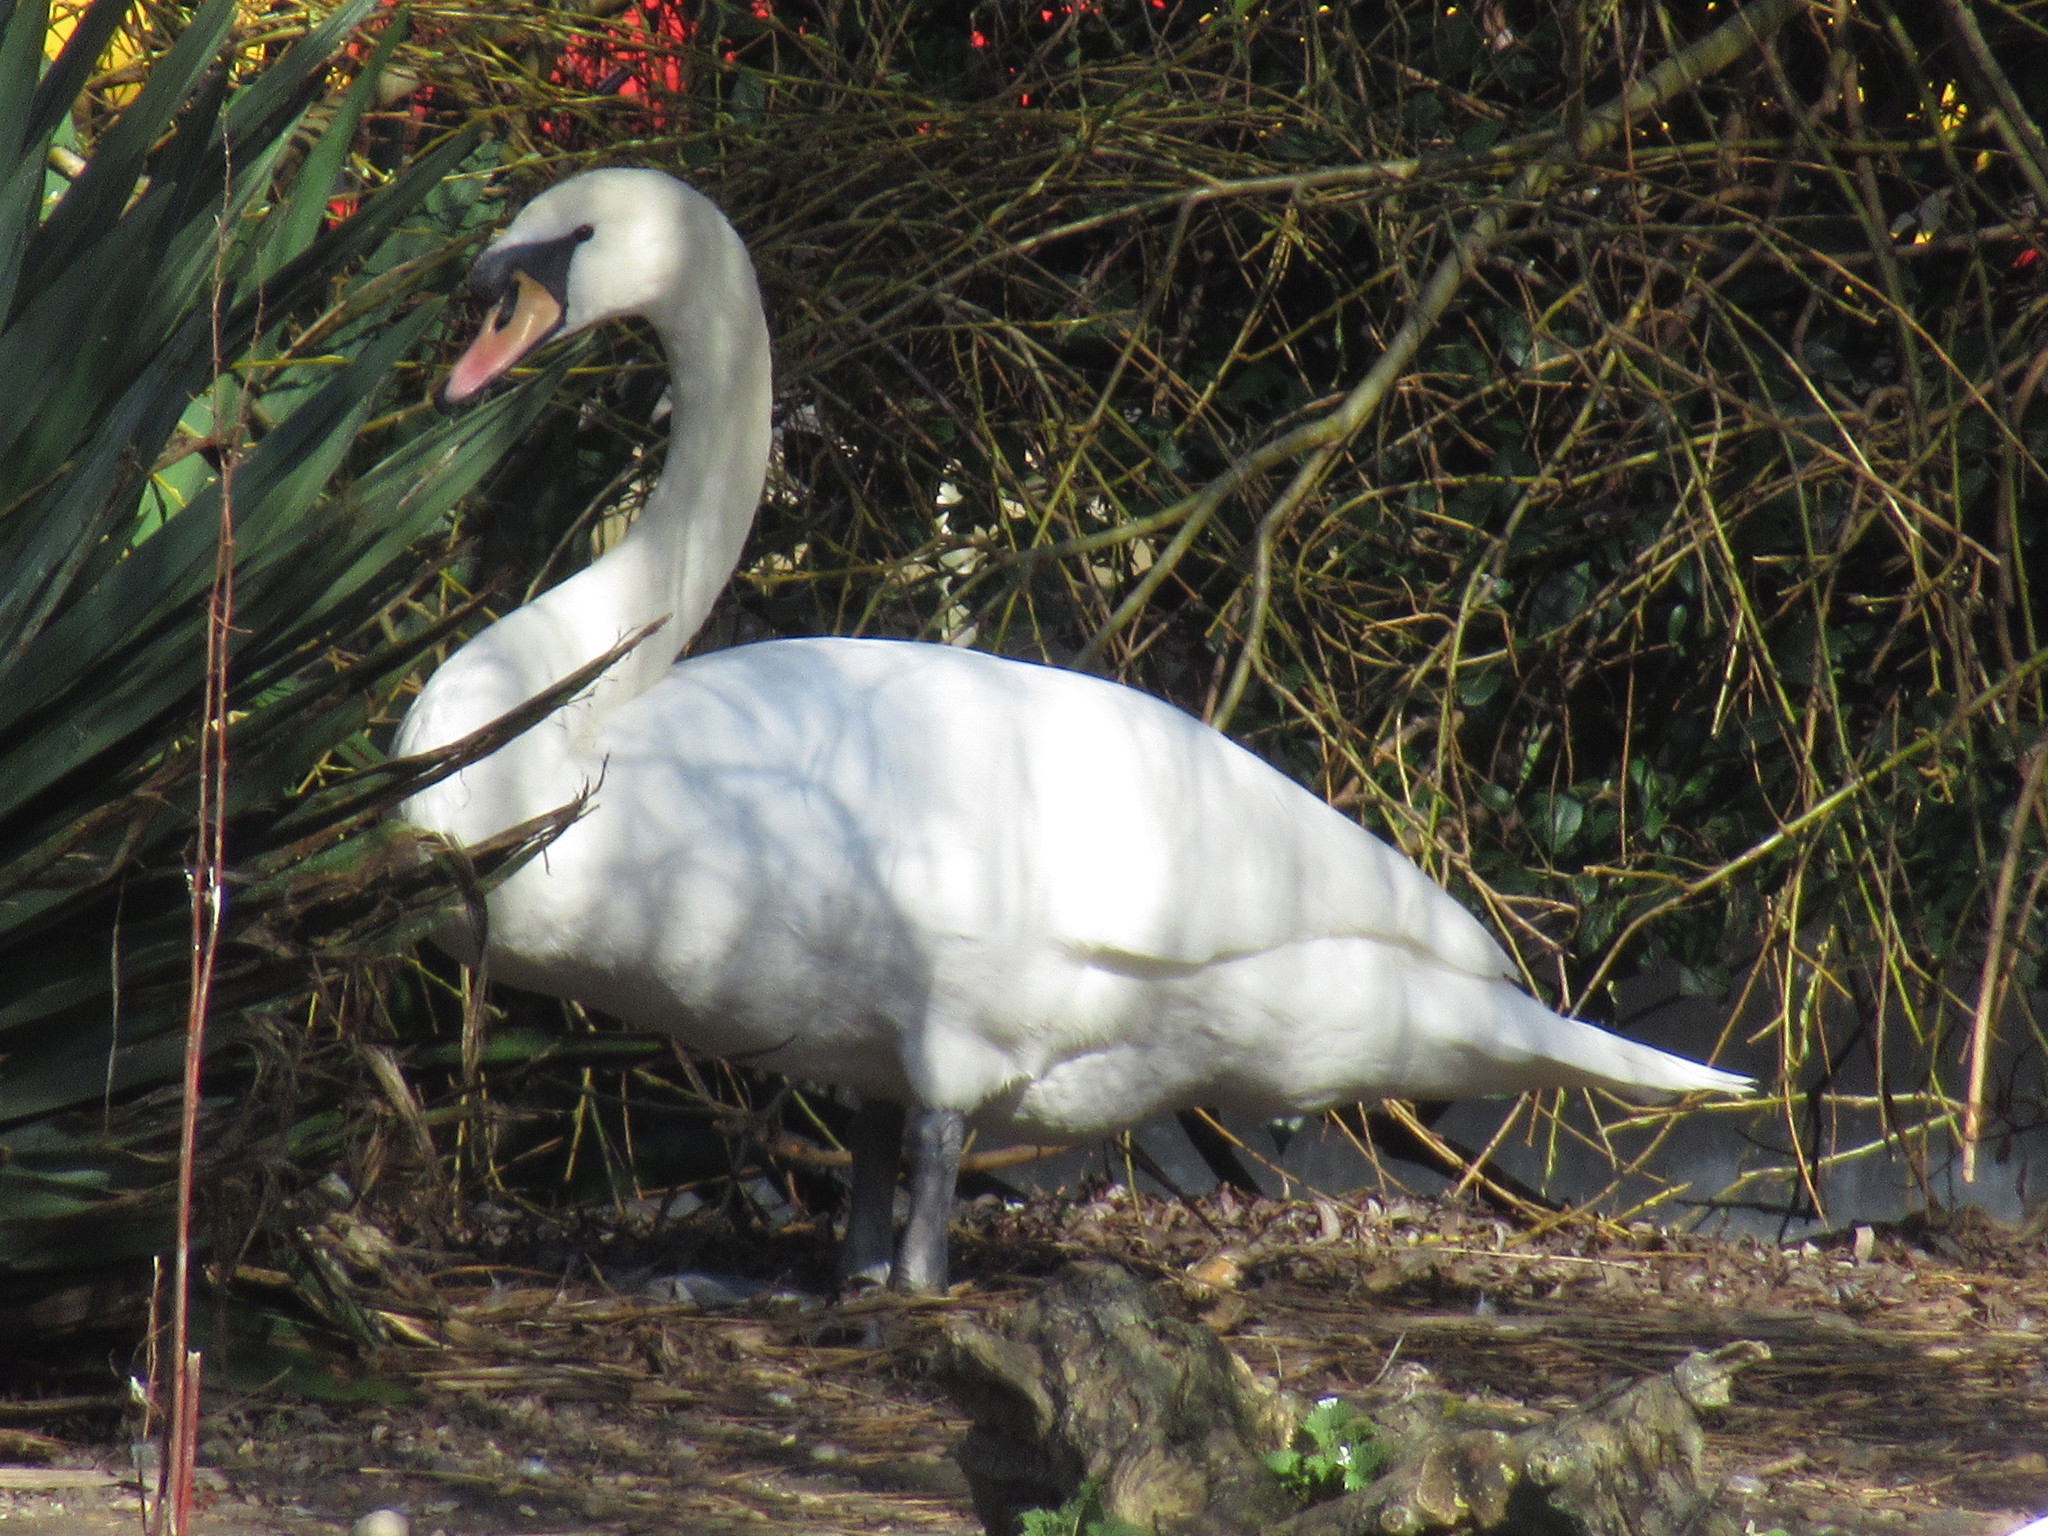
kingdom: Animalia
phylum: Chordata
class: Aves
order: Anseriformes
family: Anatidae
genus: Cygnus
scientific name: Cygnus olor
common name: Mute swan
